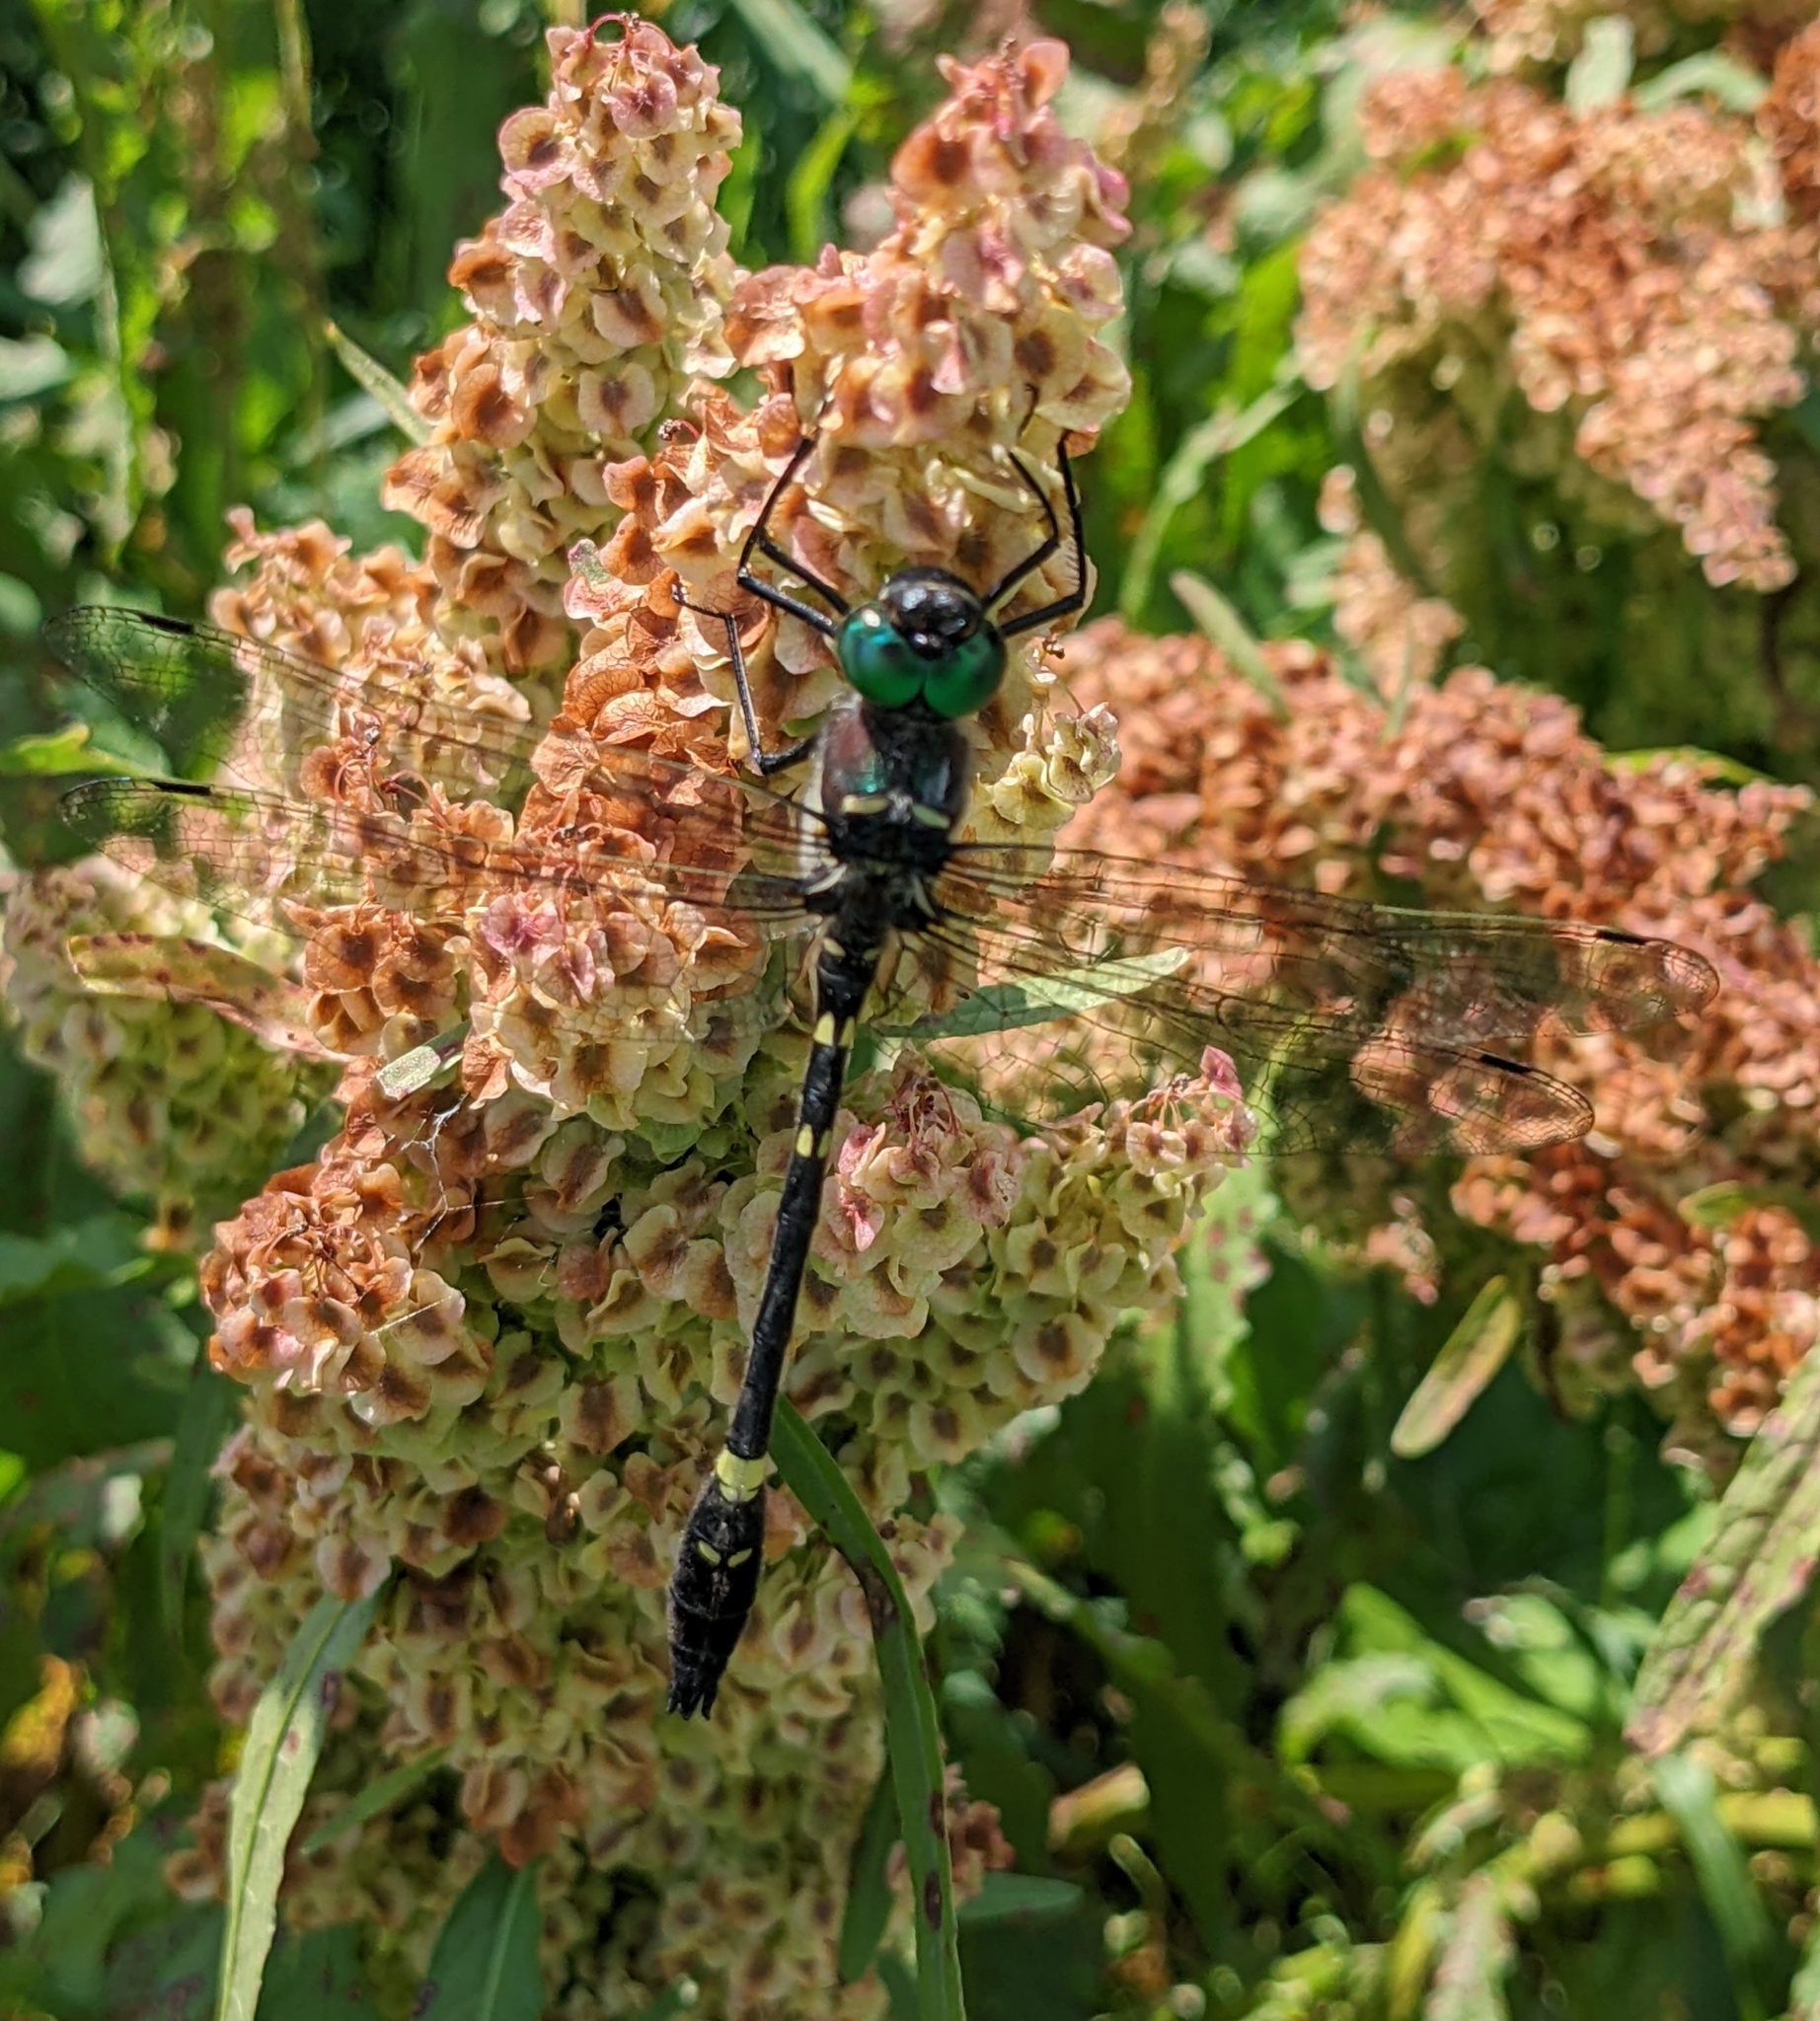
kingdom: Animalia
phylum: Arthropoda
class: Insecta
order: Odonata
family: Macromiidae
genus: Macromia
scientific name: Macromia illinoiensis
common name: Swift river cruiser
